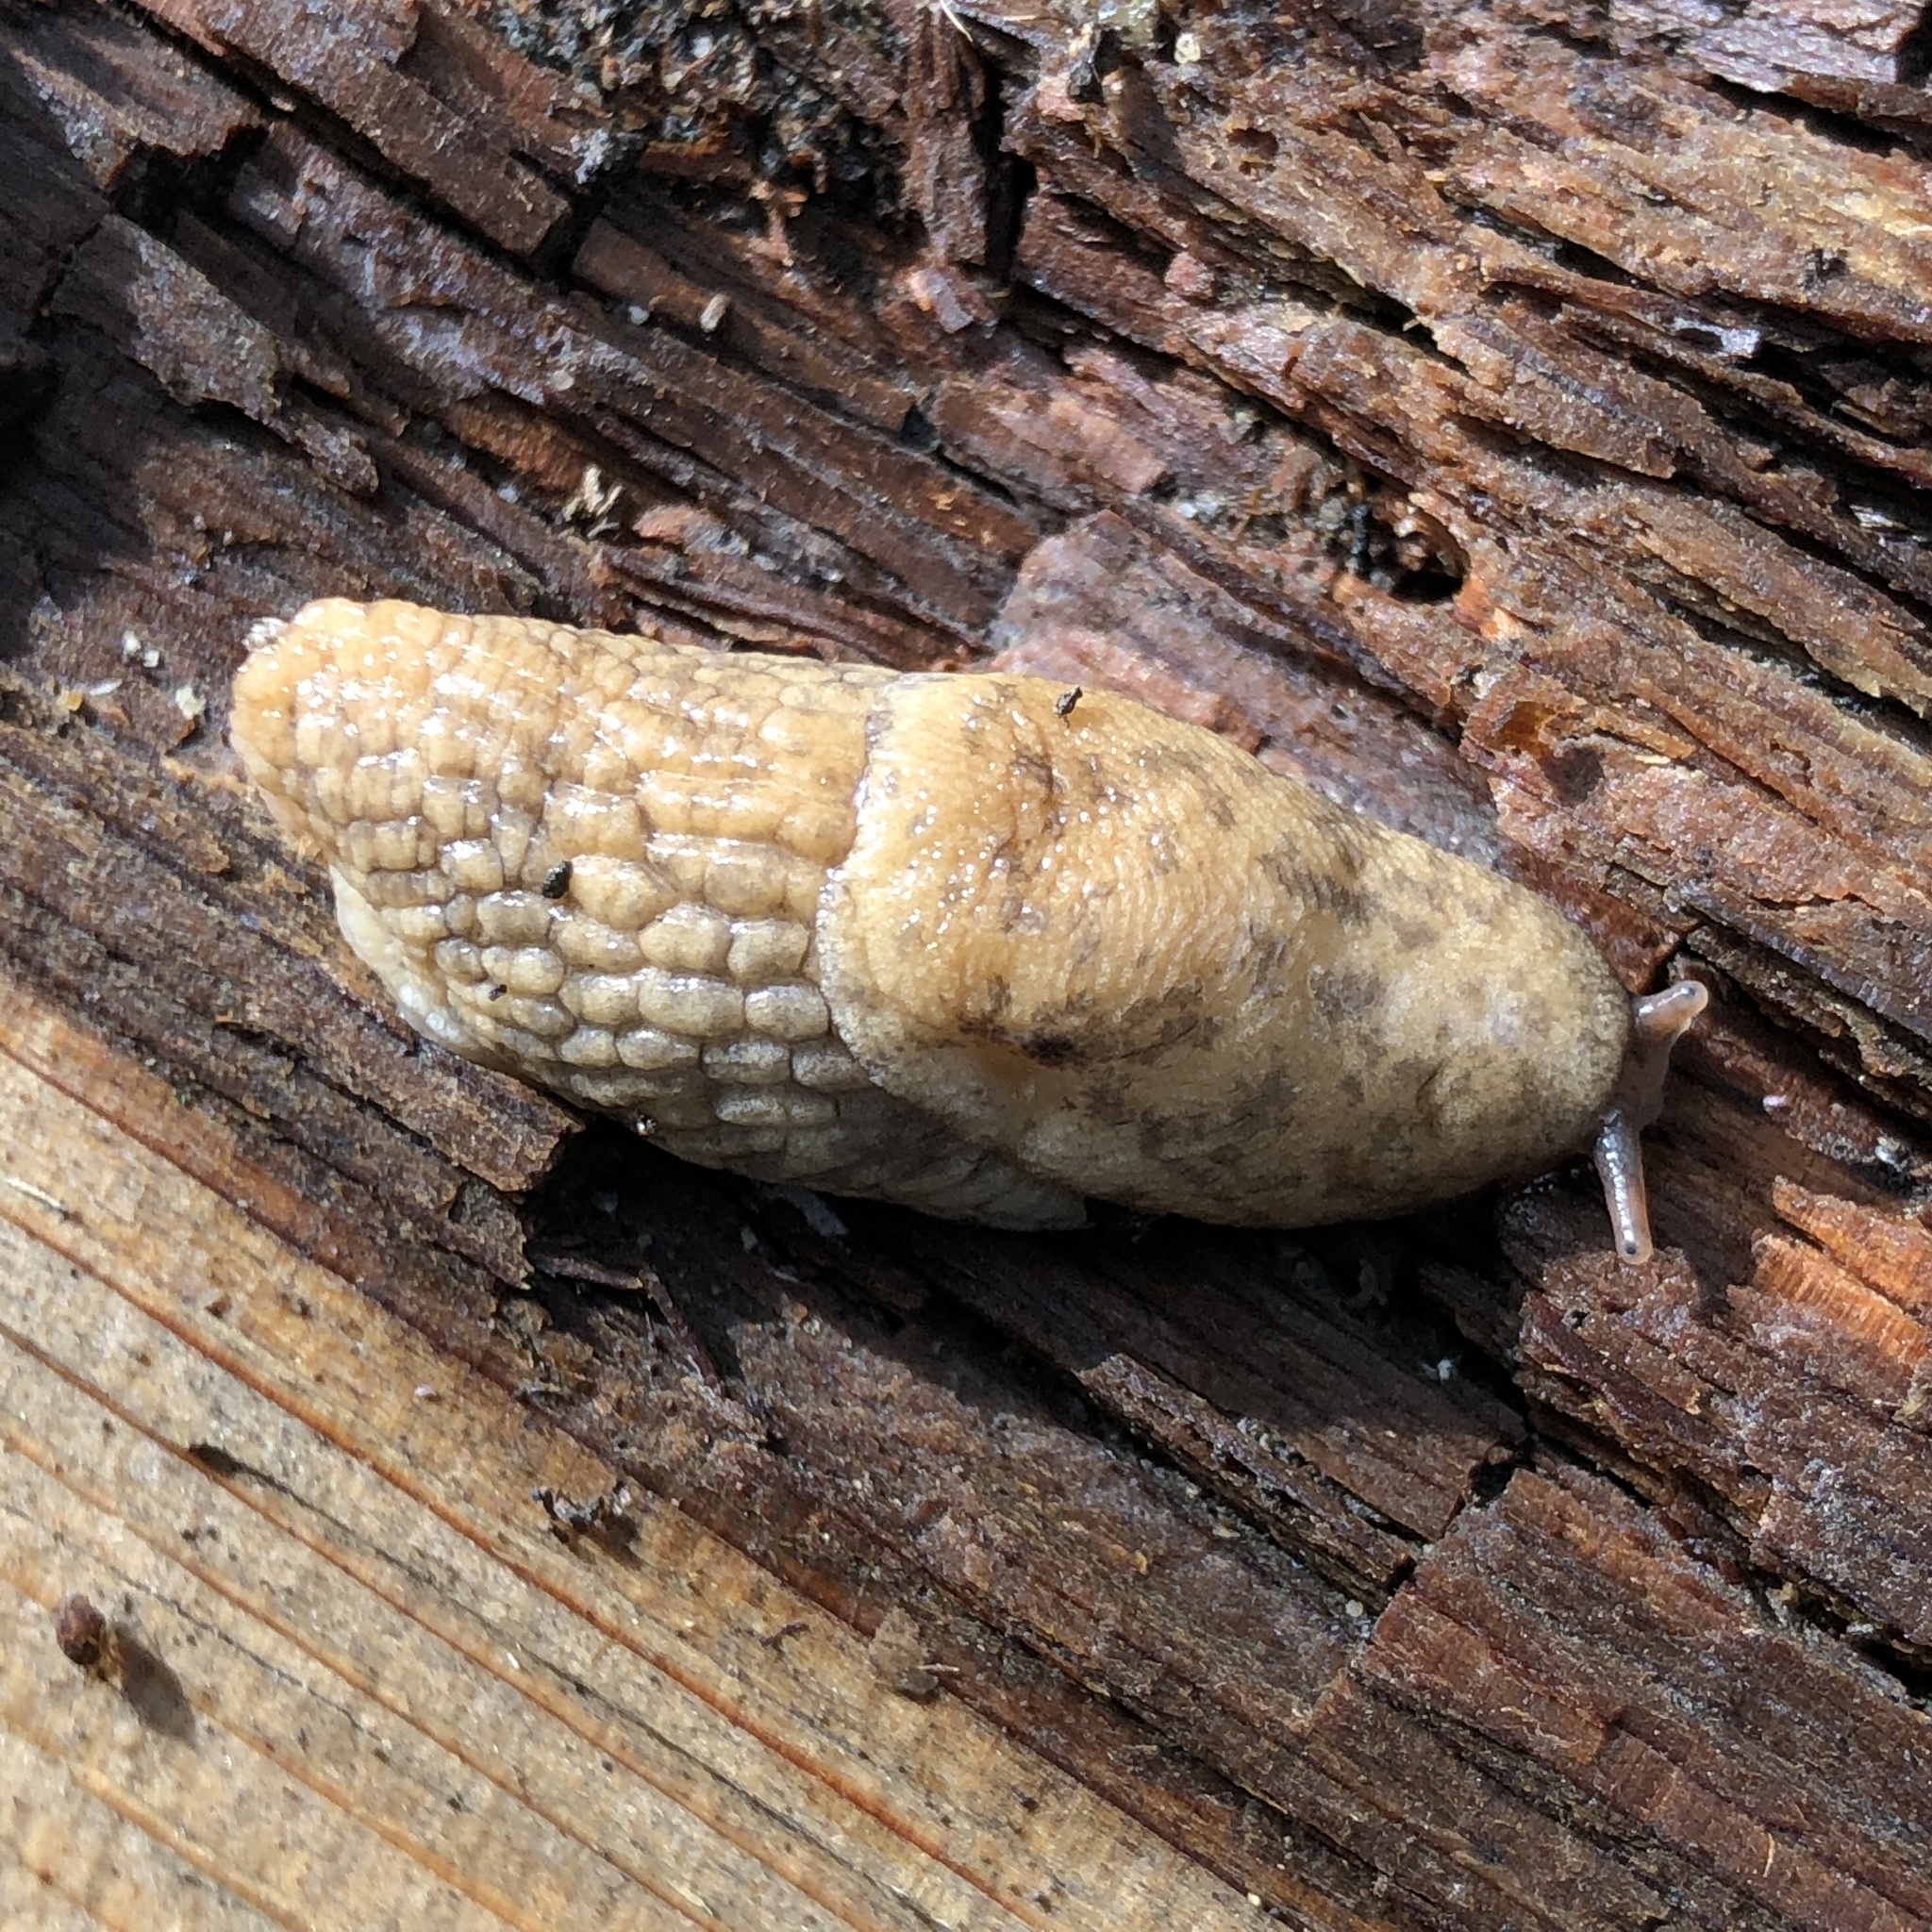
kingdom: Animalia
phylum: Mollusca
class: Gastropoda
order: Stylommatophora
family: Agriolimacidae
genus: Deroceras
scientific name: Deroceras reticulatum
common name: Gray field slug
